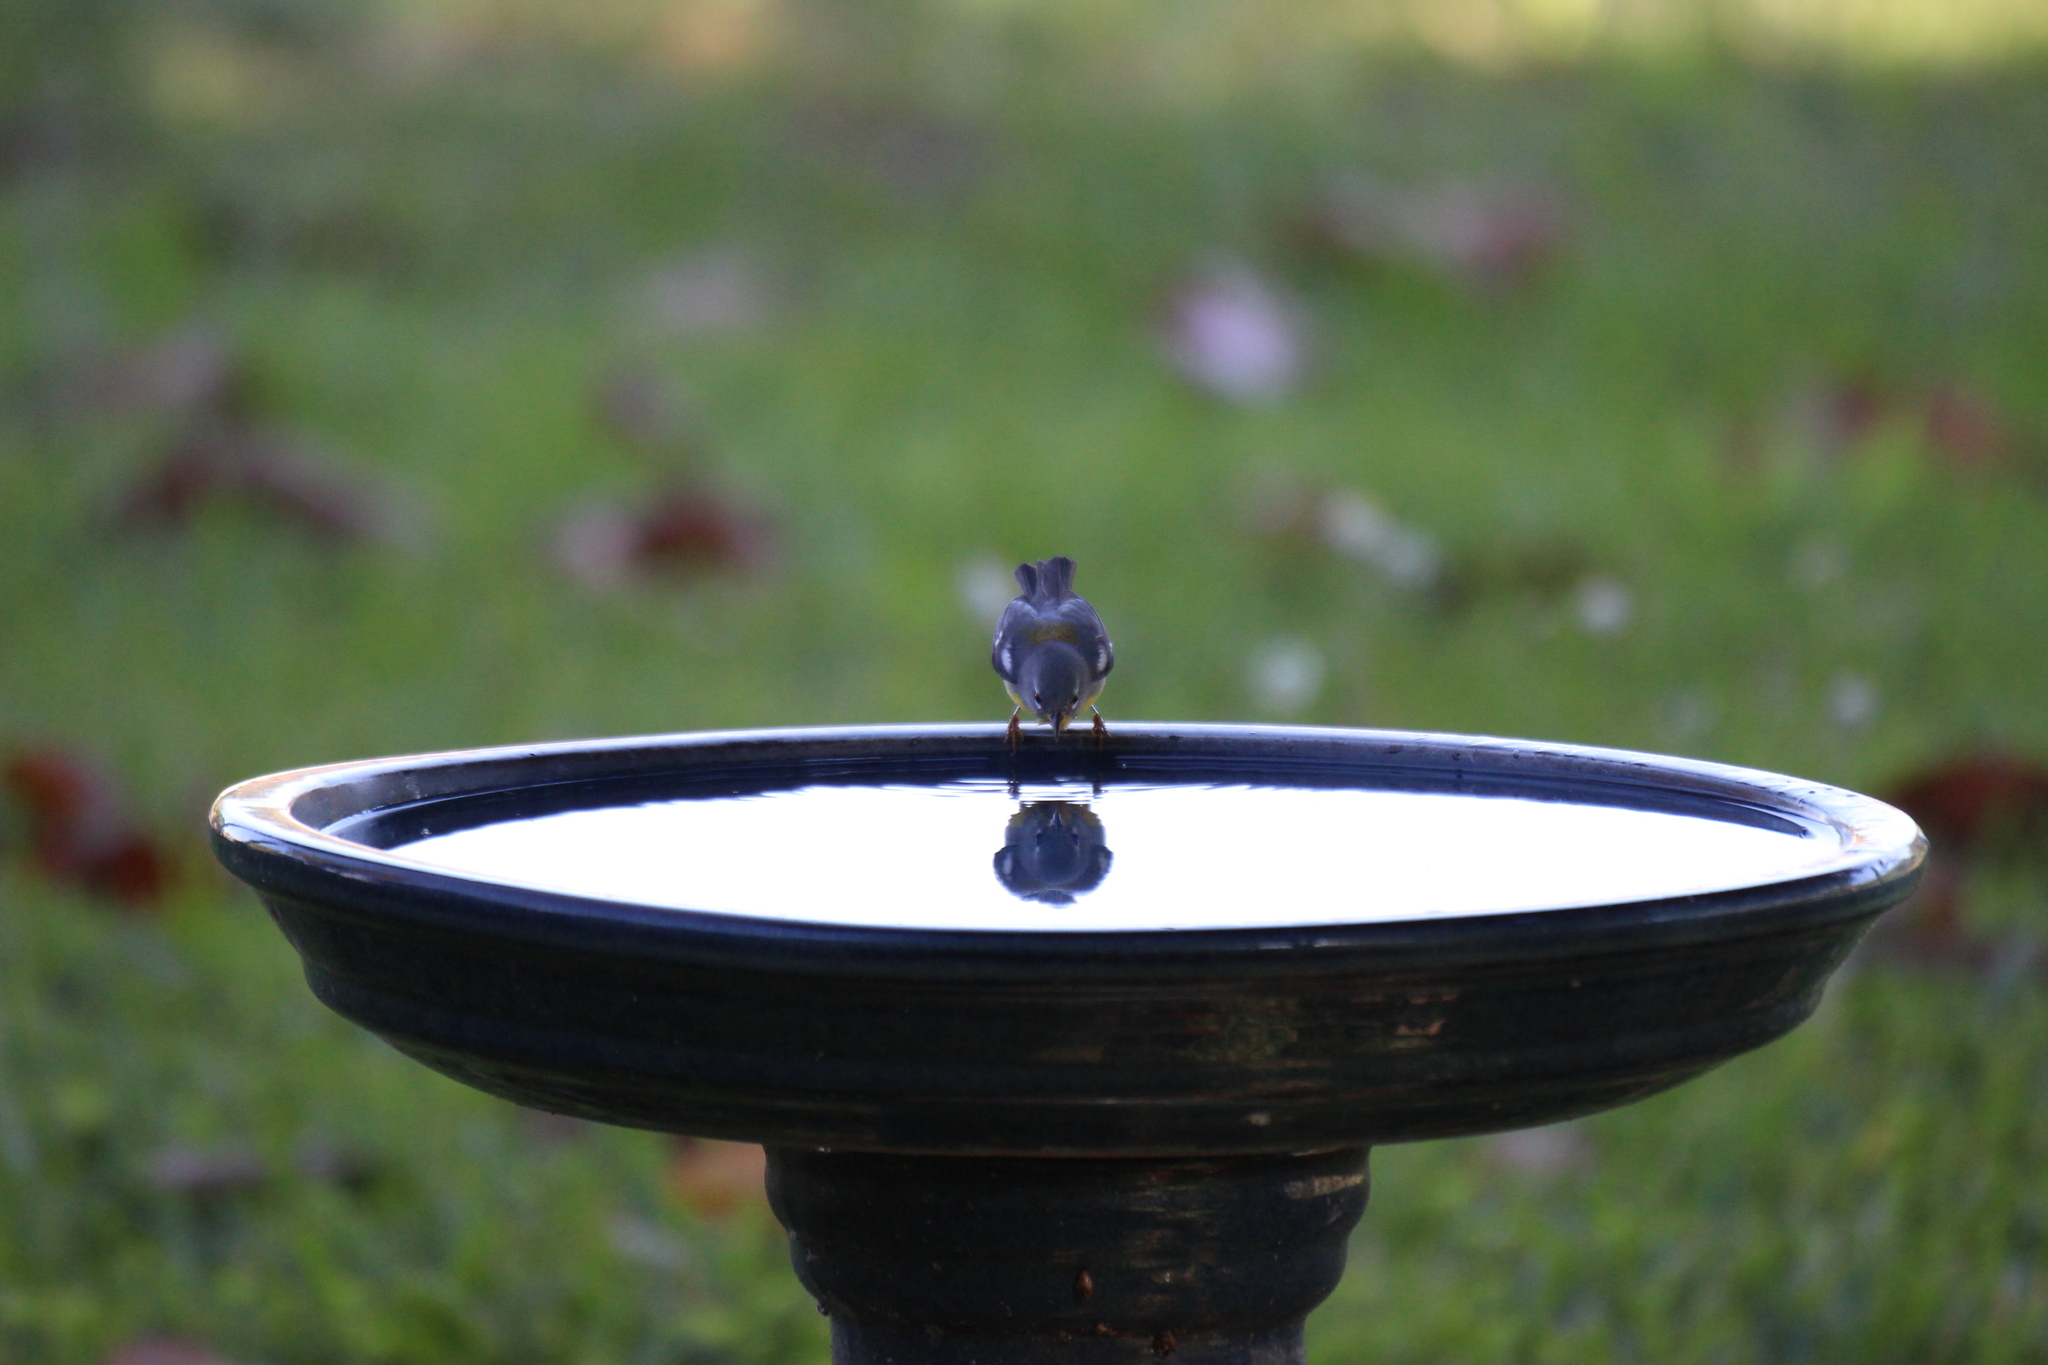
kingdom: Animalia
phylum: Chordata
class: Aves
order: Passeriformes
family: Parulidae
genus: Setophaga
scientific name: Setophaga americana
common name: Northern parula
